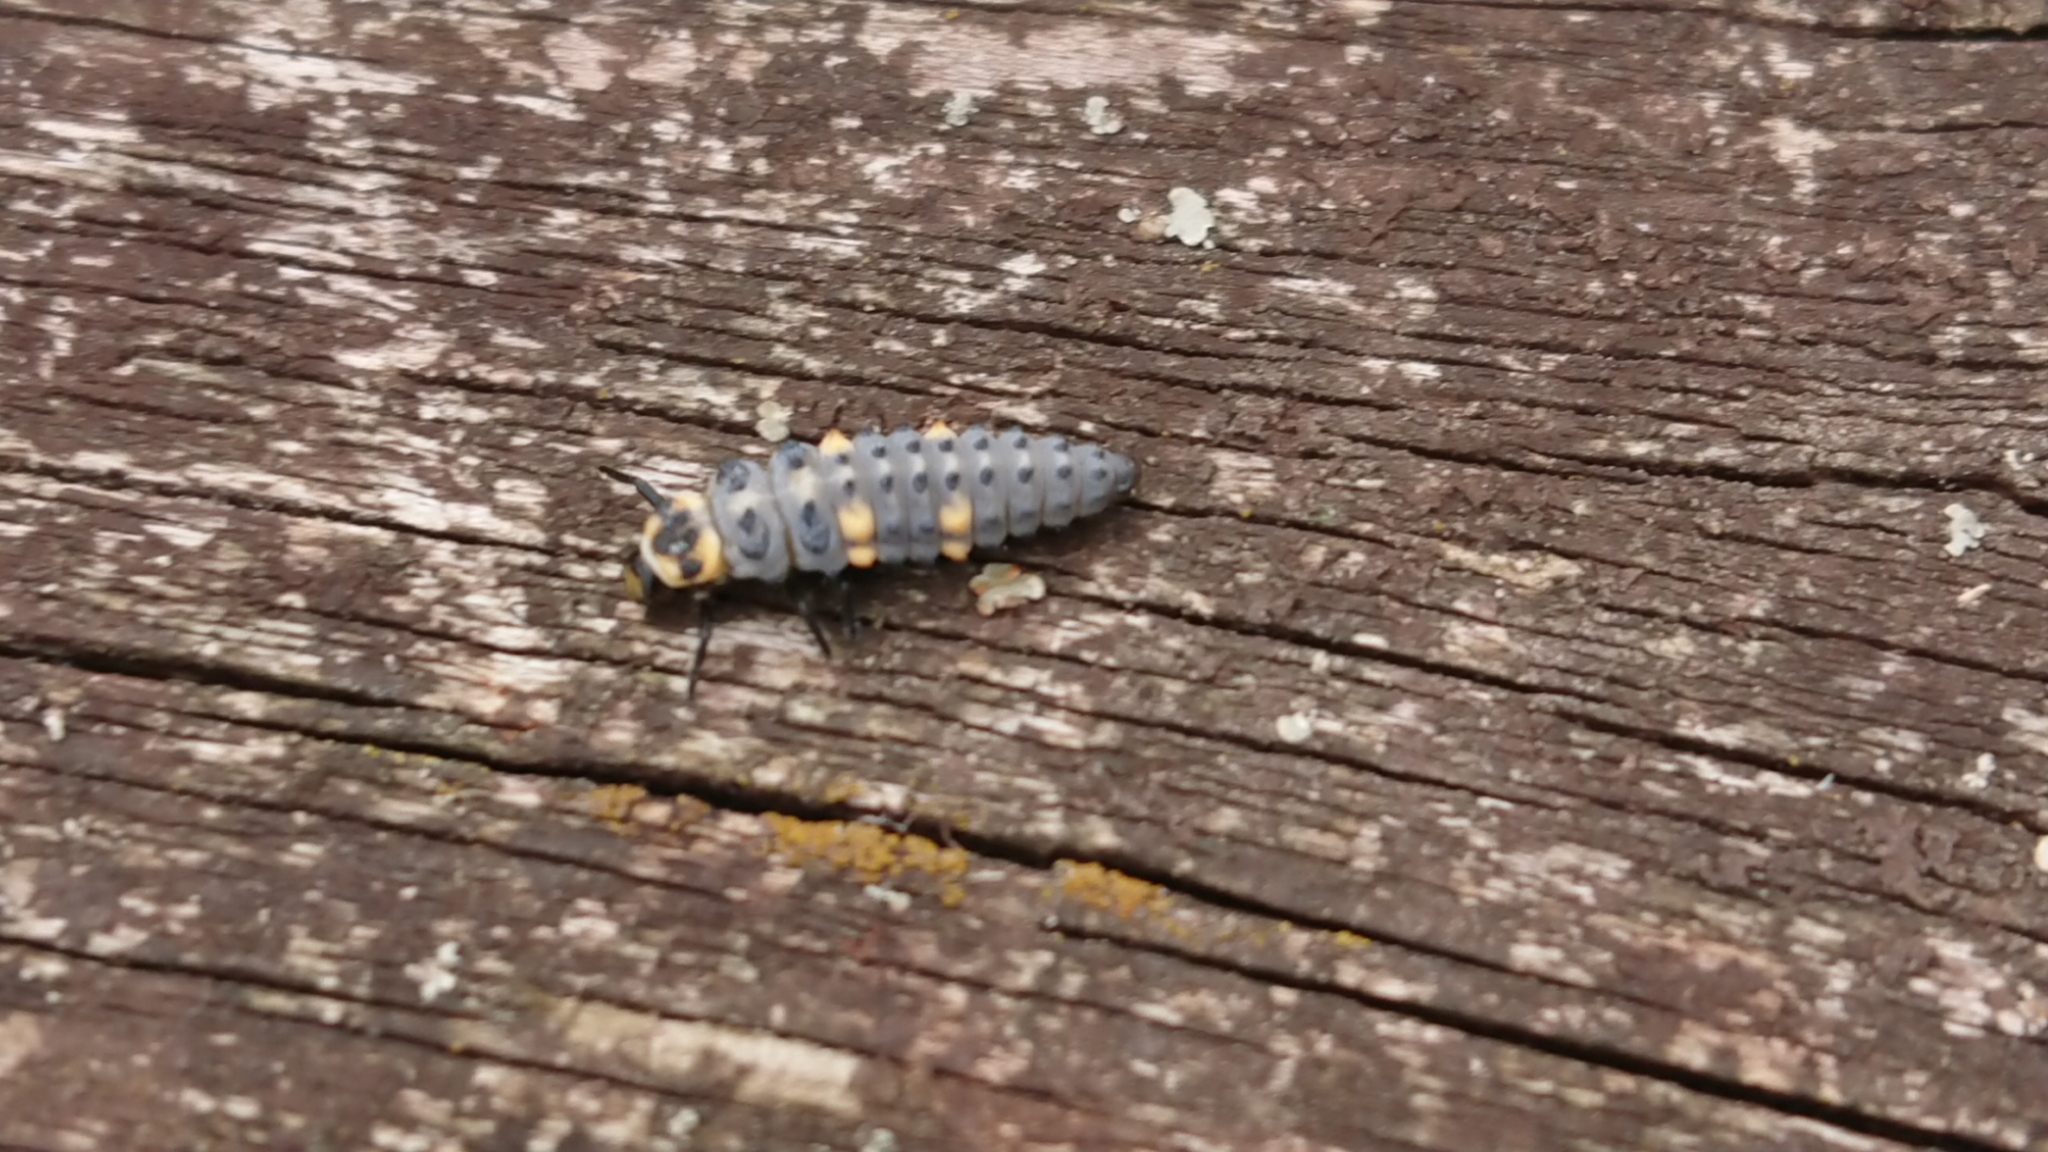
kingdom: Animalia
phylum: Arthropoda
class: Insecta
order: Coleoptera
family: Coccinellidae
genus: Coccinella
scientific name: Coccinella septempunctata
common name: Sevenspotted lady beetle
